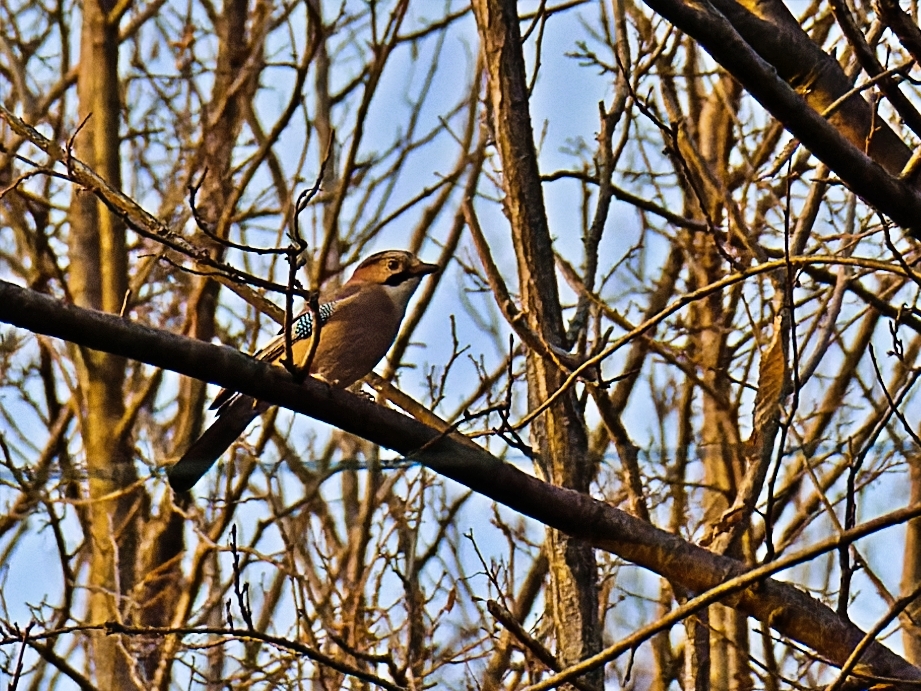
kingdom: Animalia
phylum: Chordata
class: Aves
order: Passeriformes
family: Corvidae
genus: Garrulus
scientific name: Garrulus glandarius
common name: Eurasian jay
